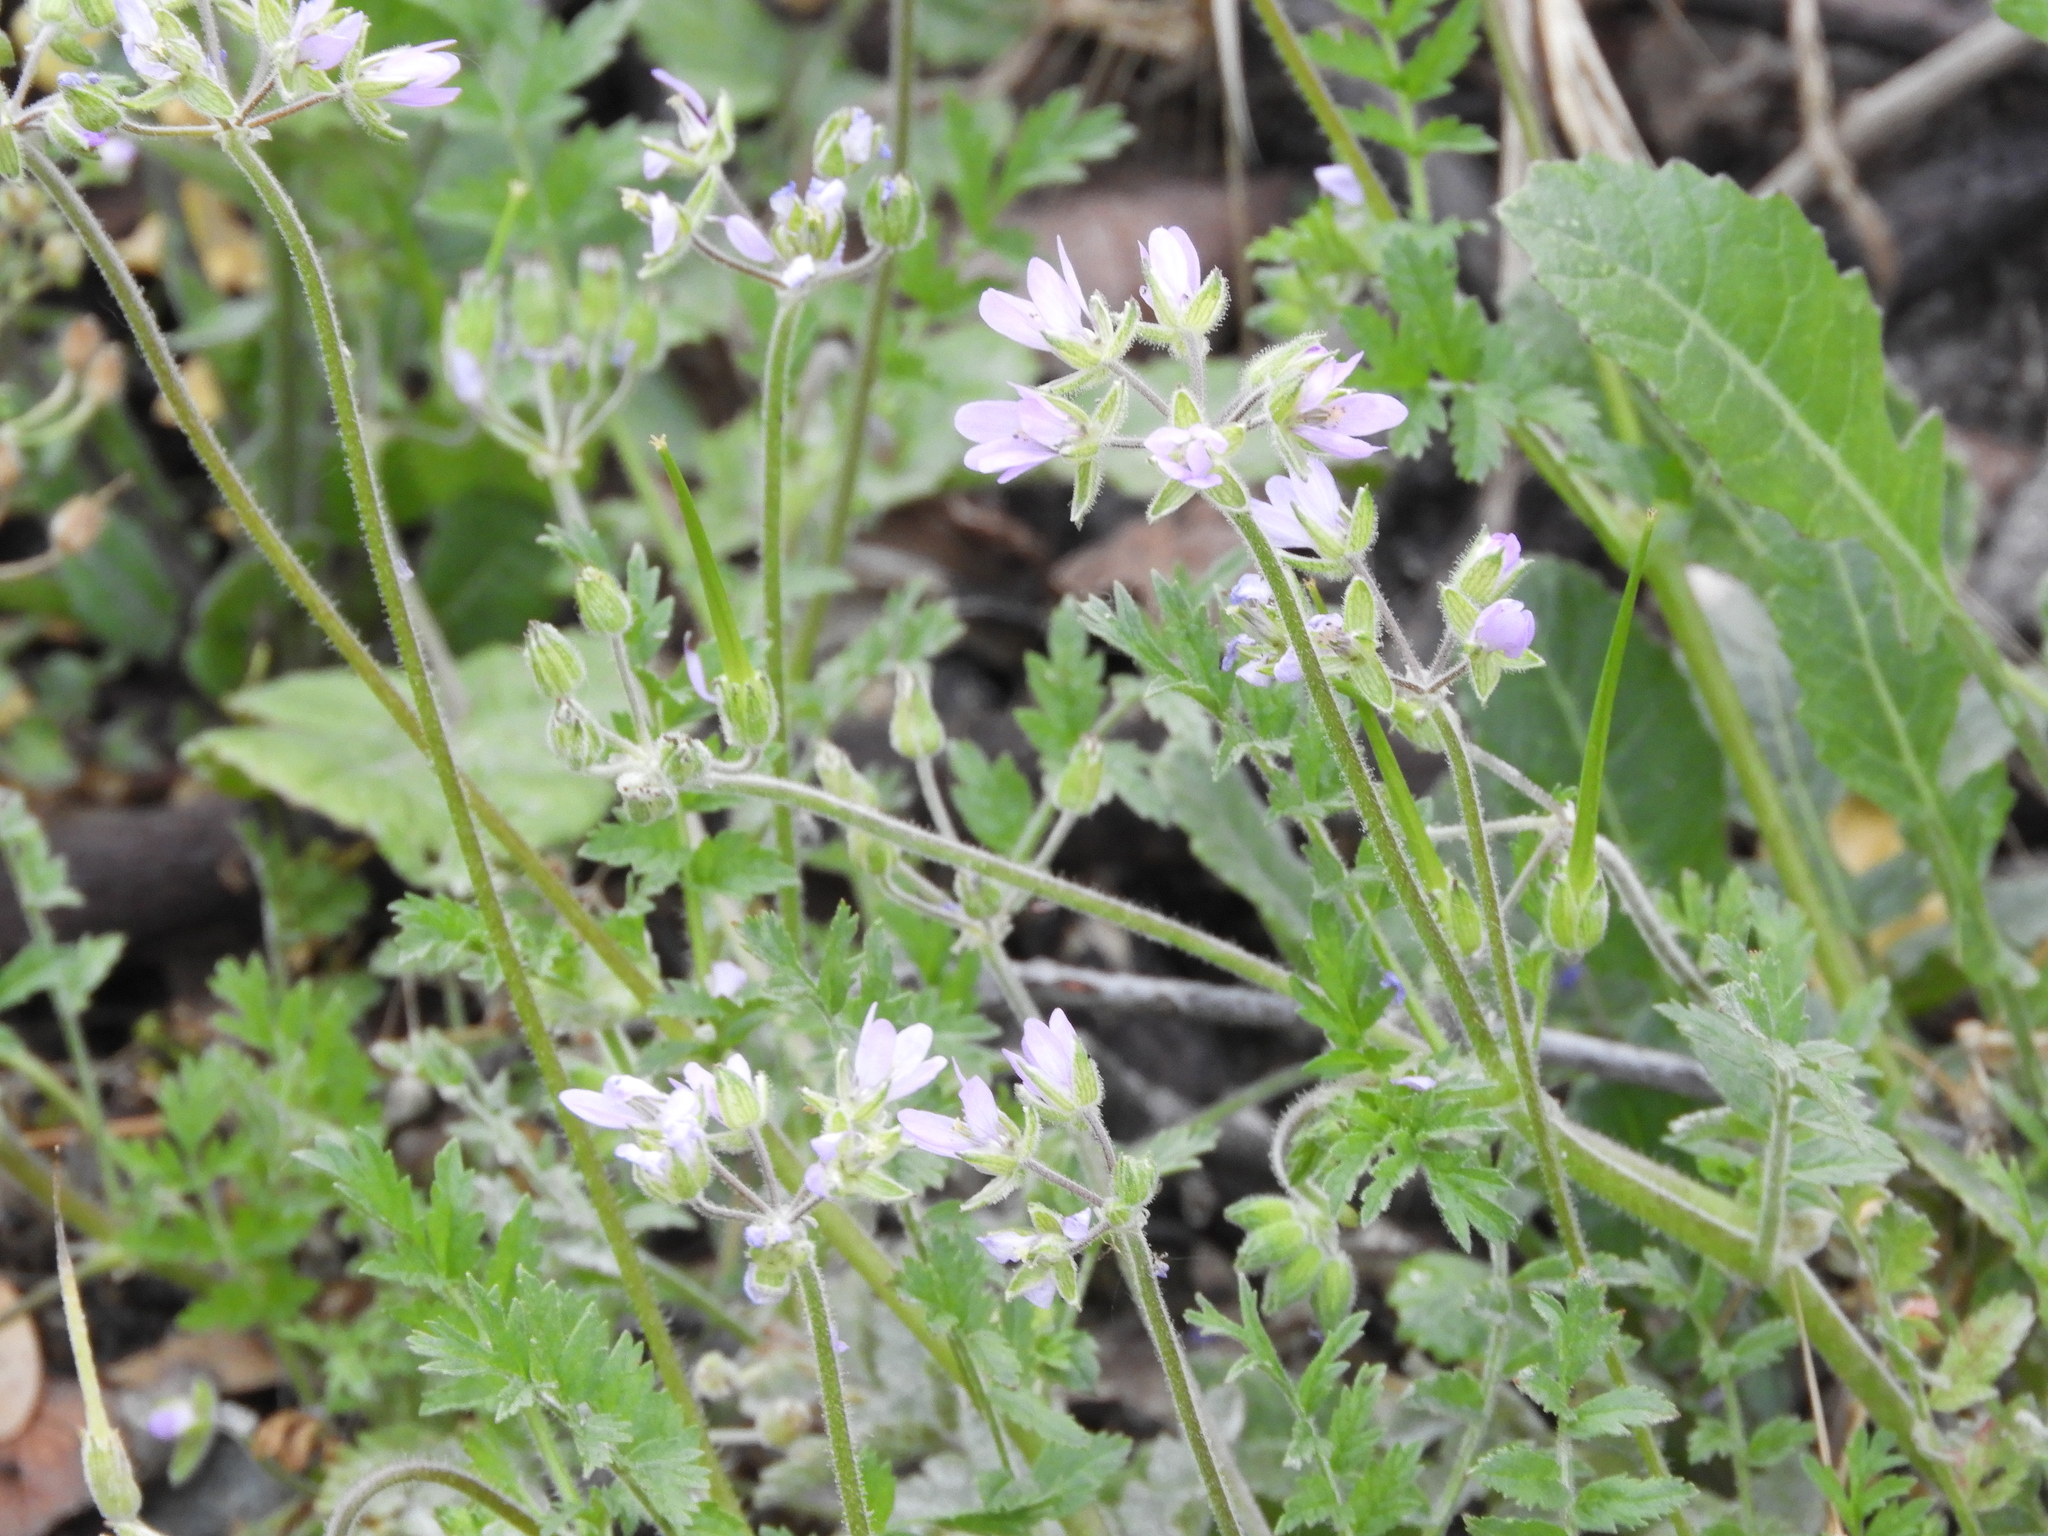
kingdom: Plantae
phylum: Tracheophyta
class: Magnoliopsida
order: Geraniales
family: Geraniaceae
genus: Erodium
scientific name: Erodium moschatum
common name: Musk stork's-bill
